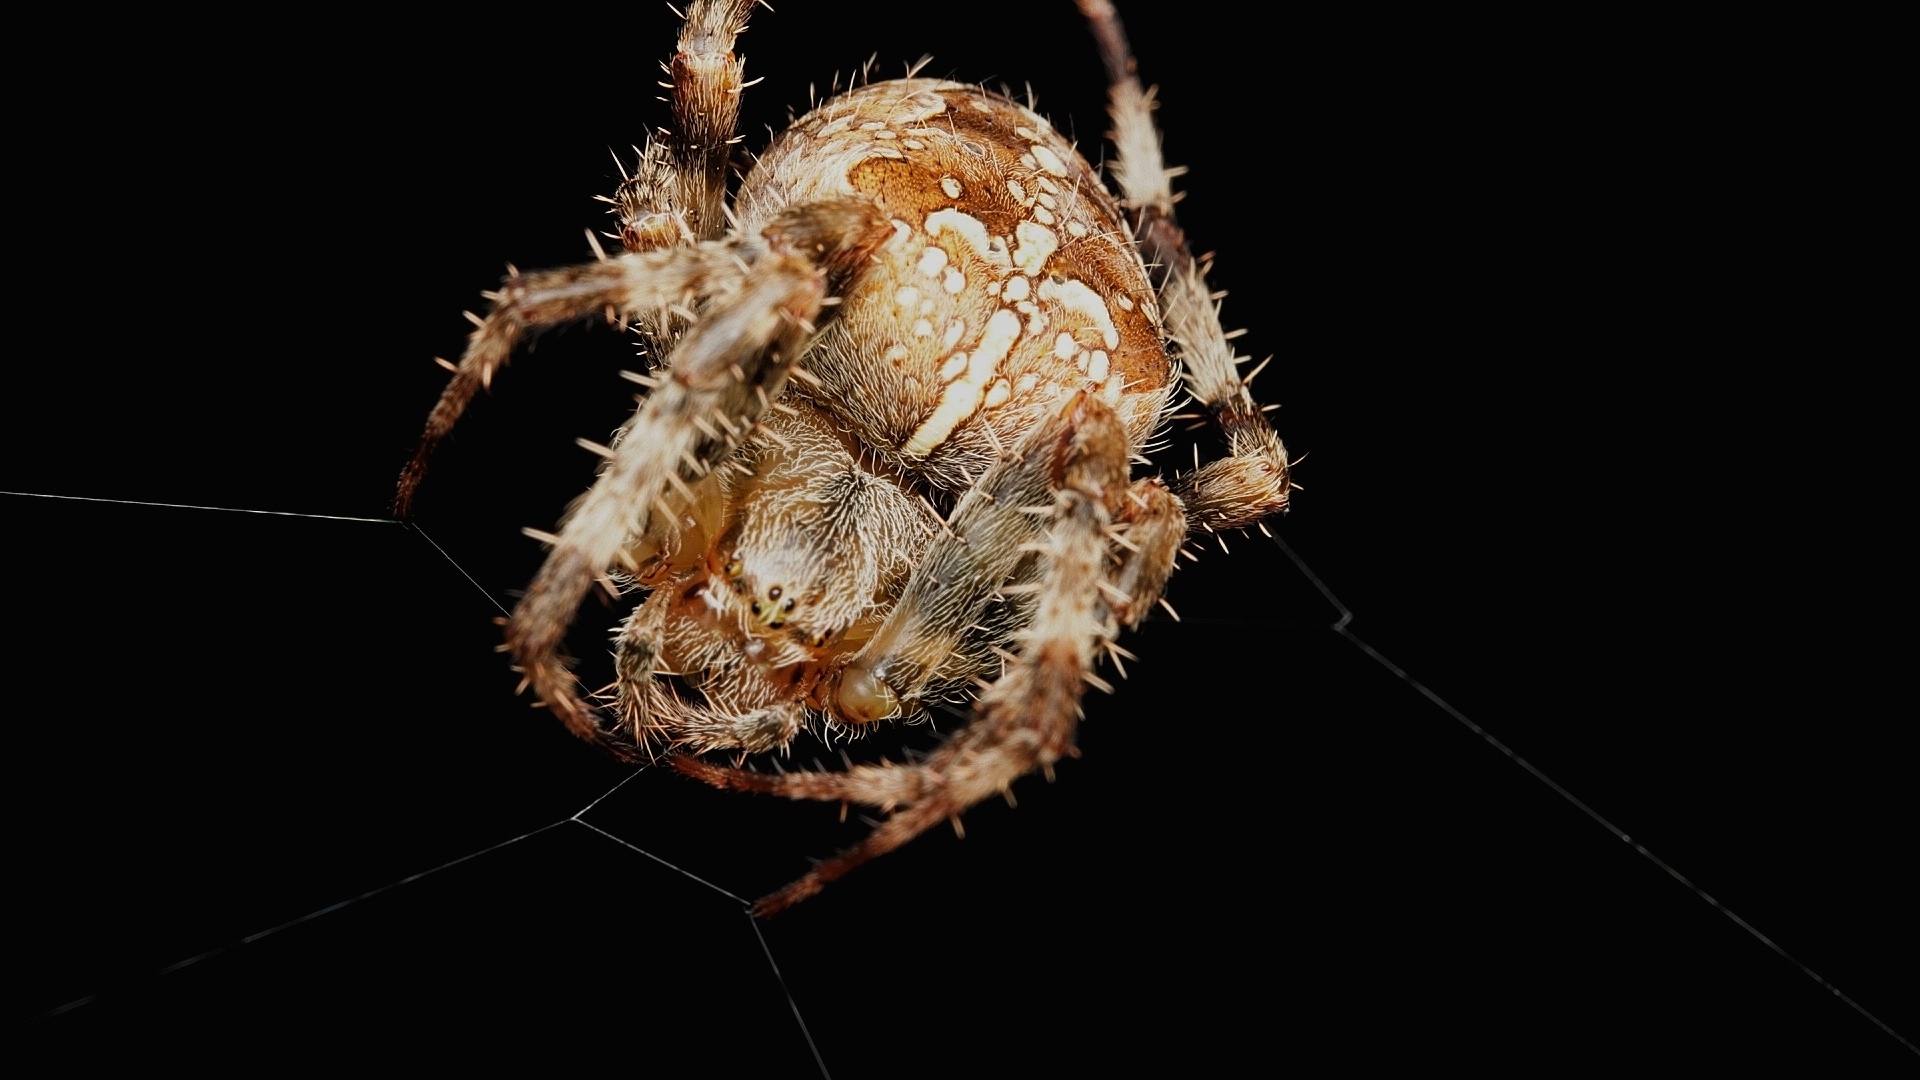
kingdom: Animalia
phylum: Arthropoda
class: Arachnida
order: Araneae
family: Araneidae
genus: Araneus
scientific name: Araneus diadematus
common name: Cross orbweaver
